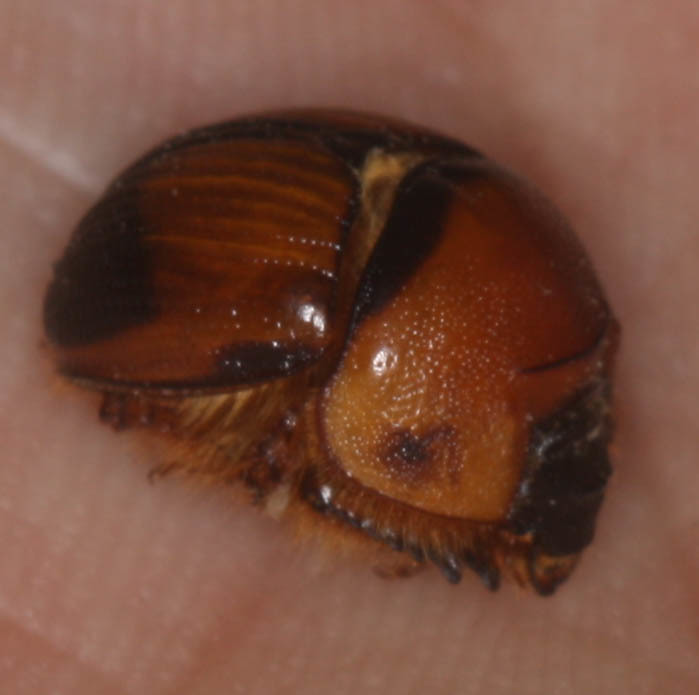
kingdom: Animalia
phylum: Arthropoda
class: Insecta
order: Coleoptera
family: Geotrupidae
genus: Bolbocerosoma
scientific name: Bolbocerosoma bruneri
